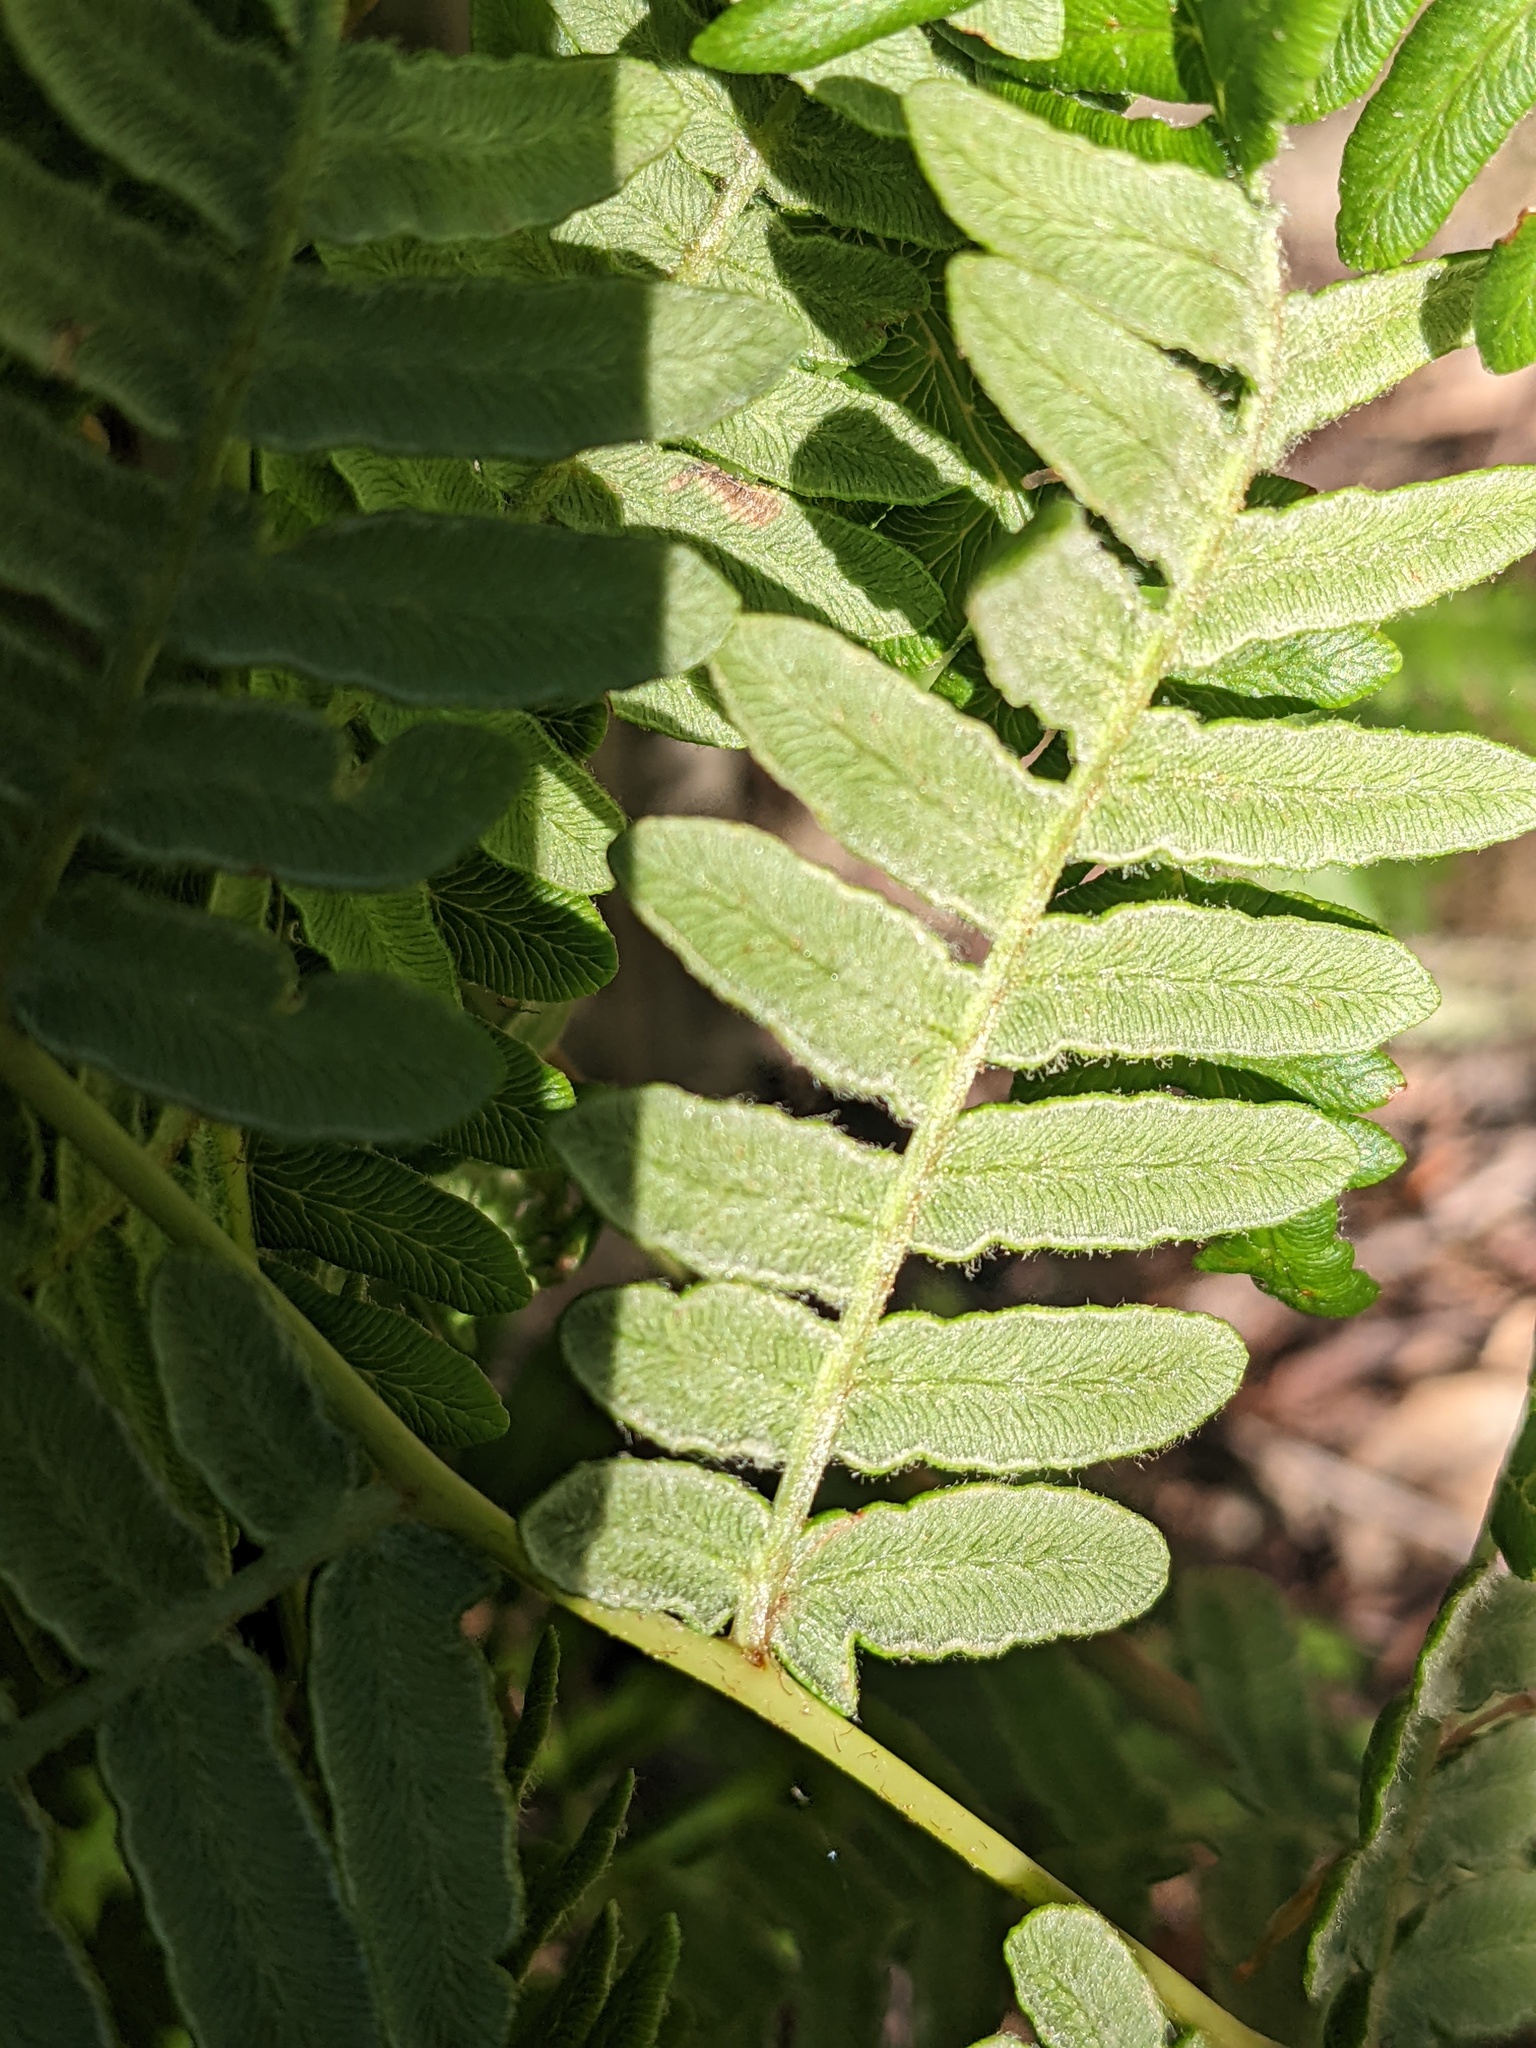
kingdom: Plantae
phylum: Tracheophyta
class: Polypodiopsida
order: Polypodiales
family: Dennstaedtiaceae
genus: Pteridium
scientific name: Pteridium aquilinum
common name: Bracken
